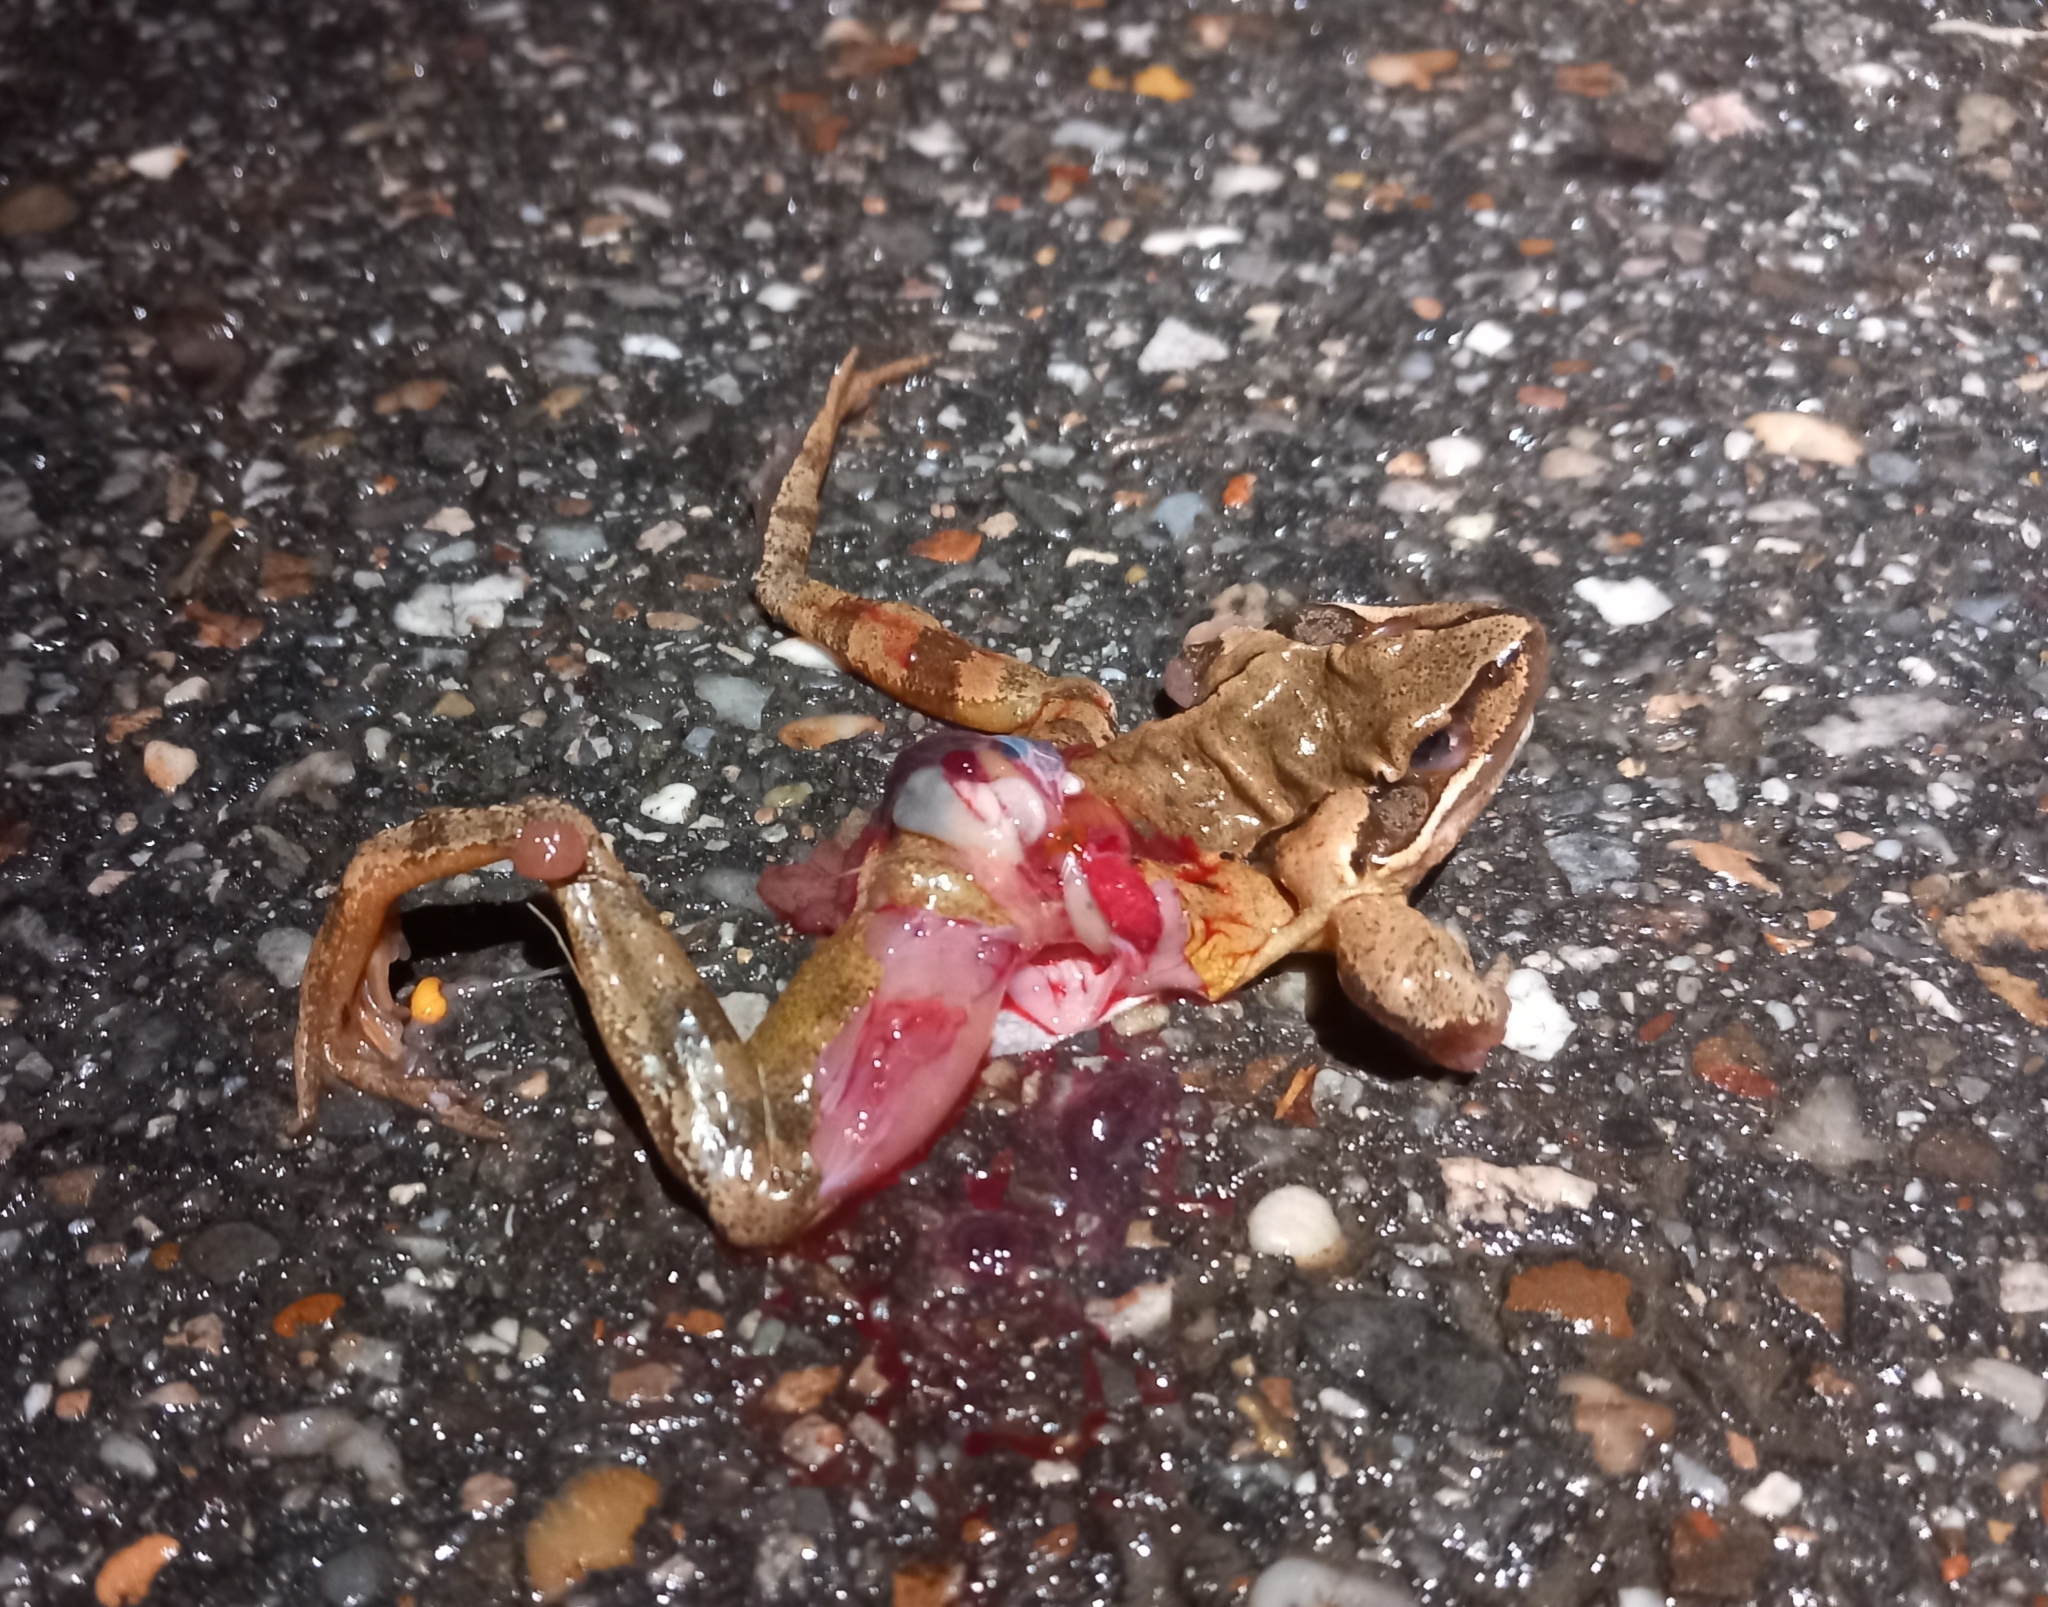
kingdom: Animalia
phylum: Chordata
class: Amphibia
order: Anura
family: Ranidae
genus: Rana
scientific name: Rana dalmatina
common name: Agile frog
